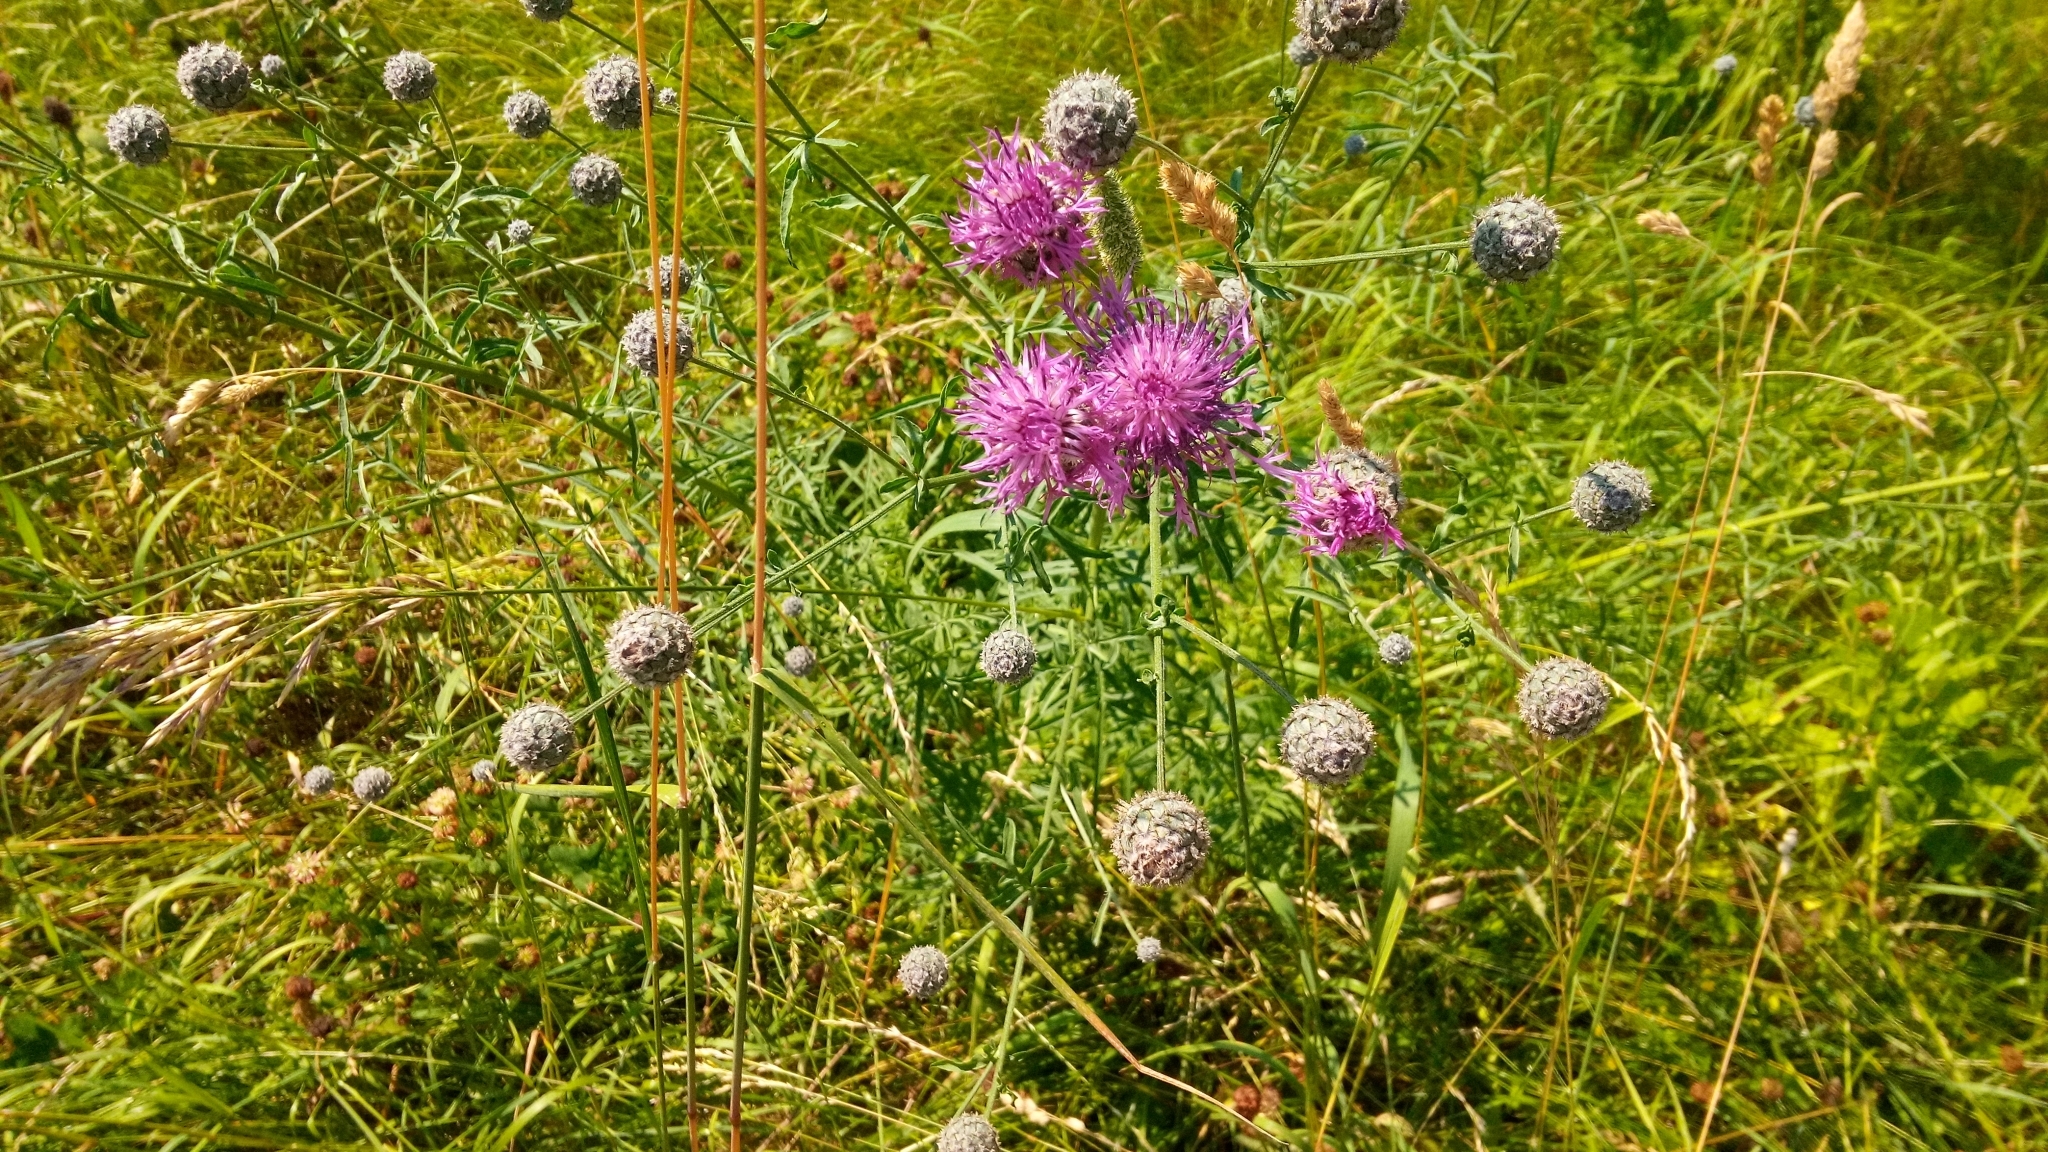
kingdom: Plantae
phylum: Tracheophyta
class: Magnoliopsida
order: Asterales
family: Asteraceae
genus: Centaurea
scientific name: Centaurea scabiosa
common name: Greater knapweed
